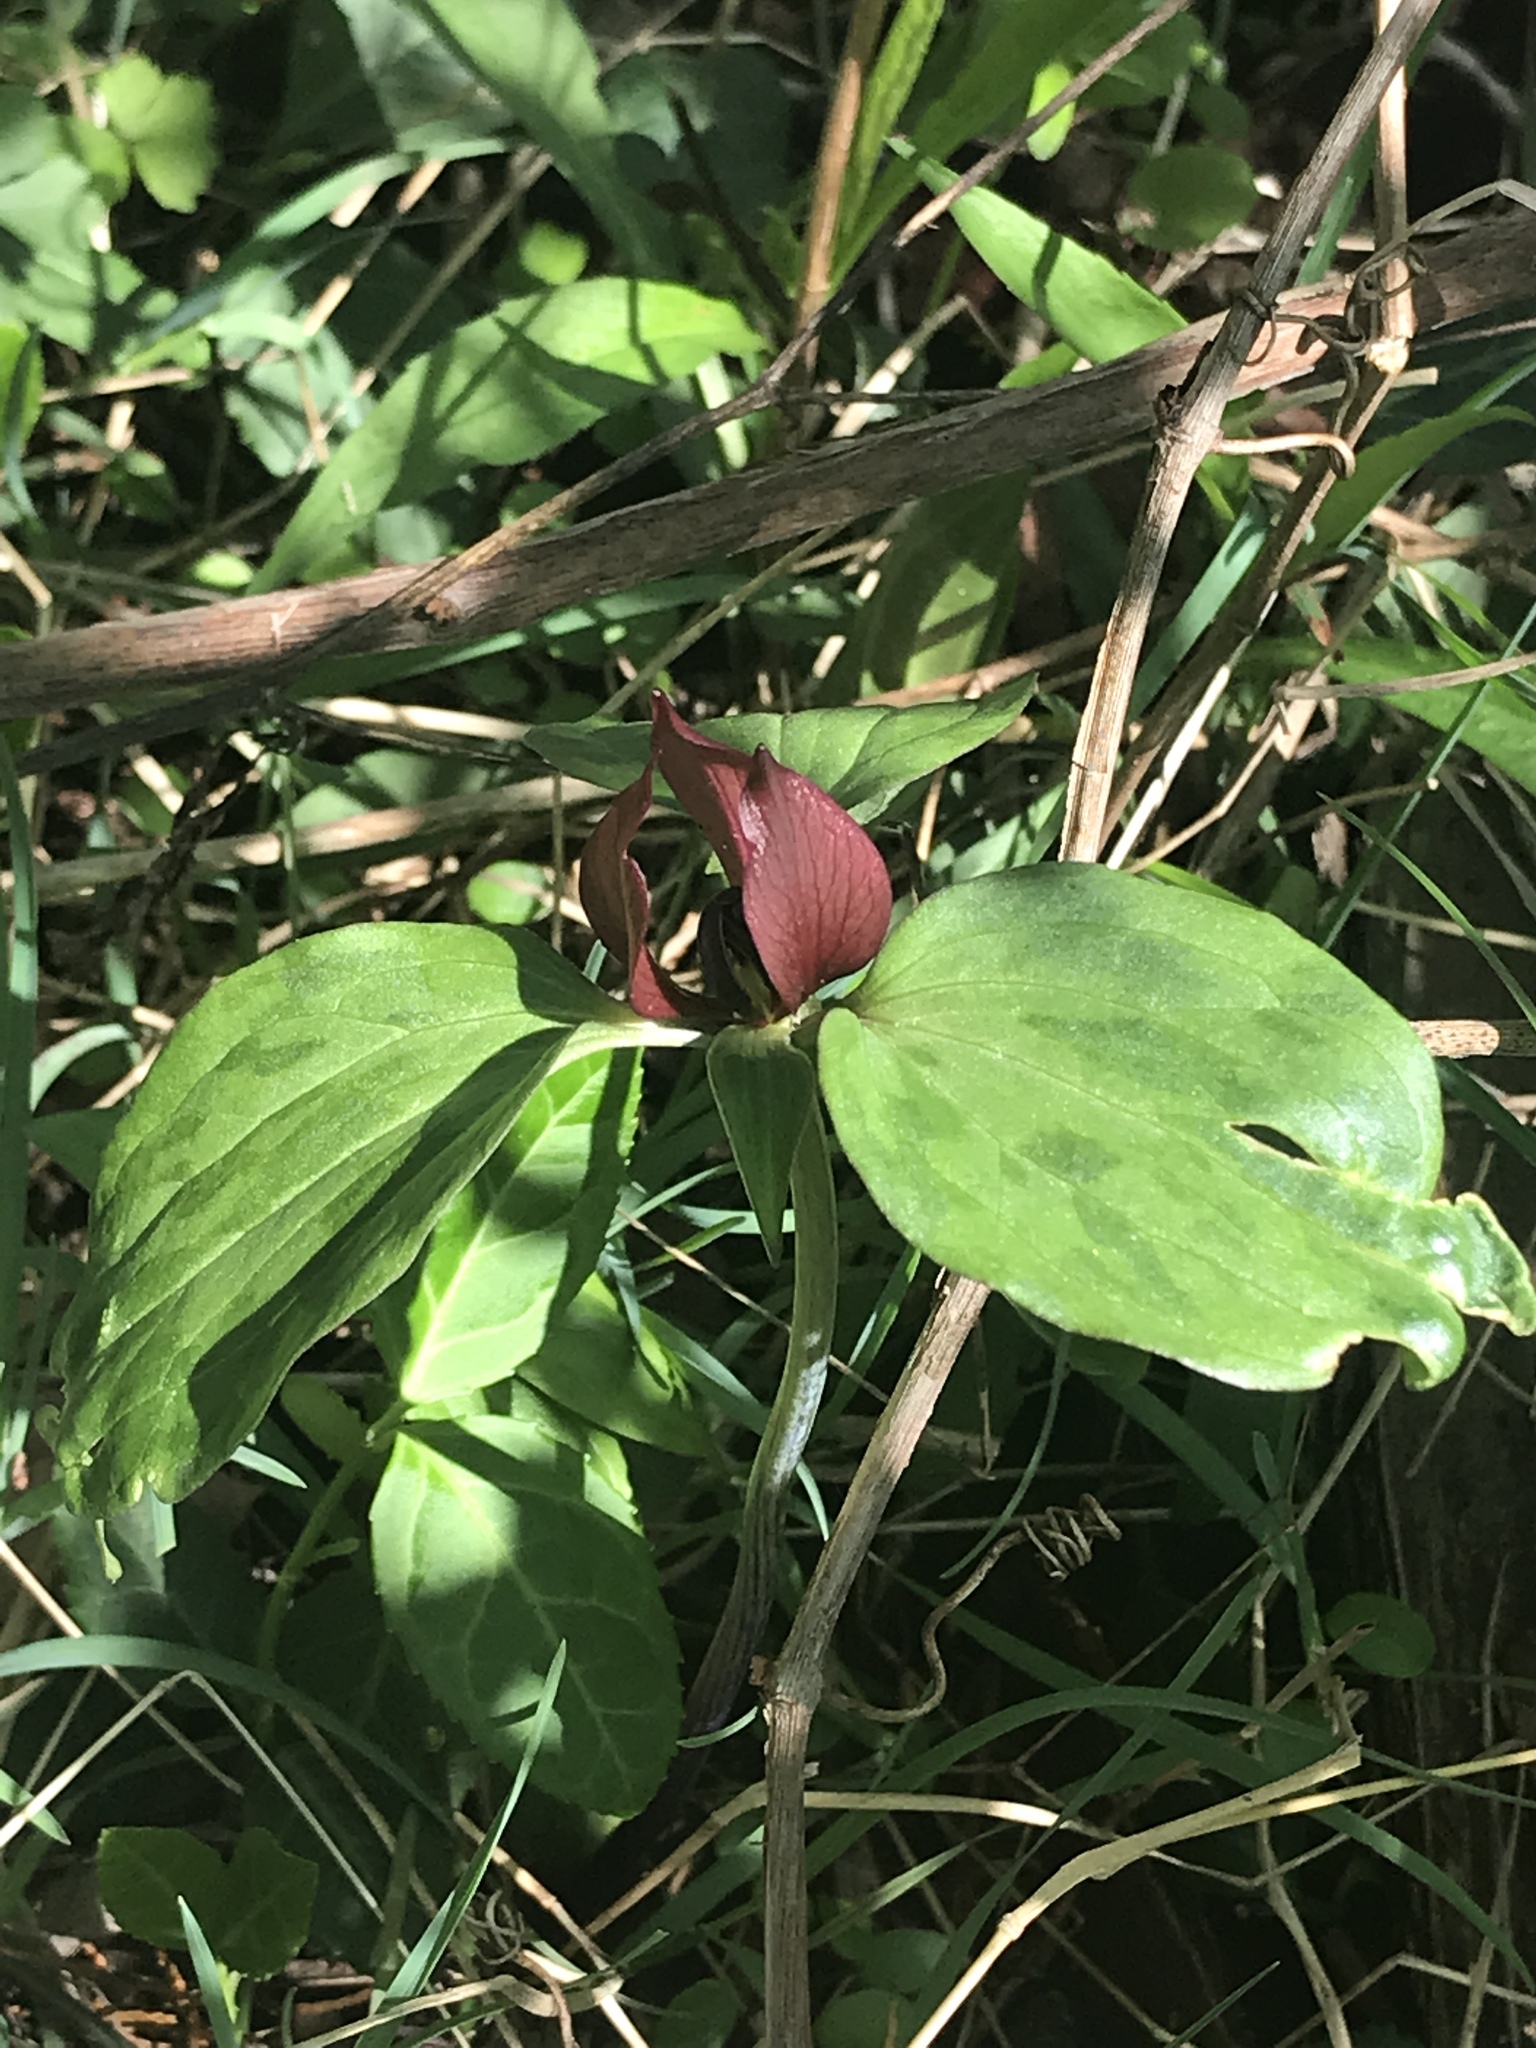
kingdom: Plantae
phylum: Tracheophyta
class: Liliopsida
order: Liliales
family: Melanthiaceae
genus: Trillium
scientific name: Trillium recurvatum
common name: Bloody butcher
